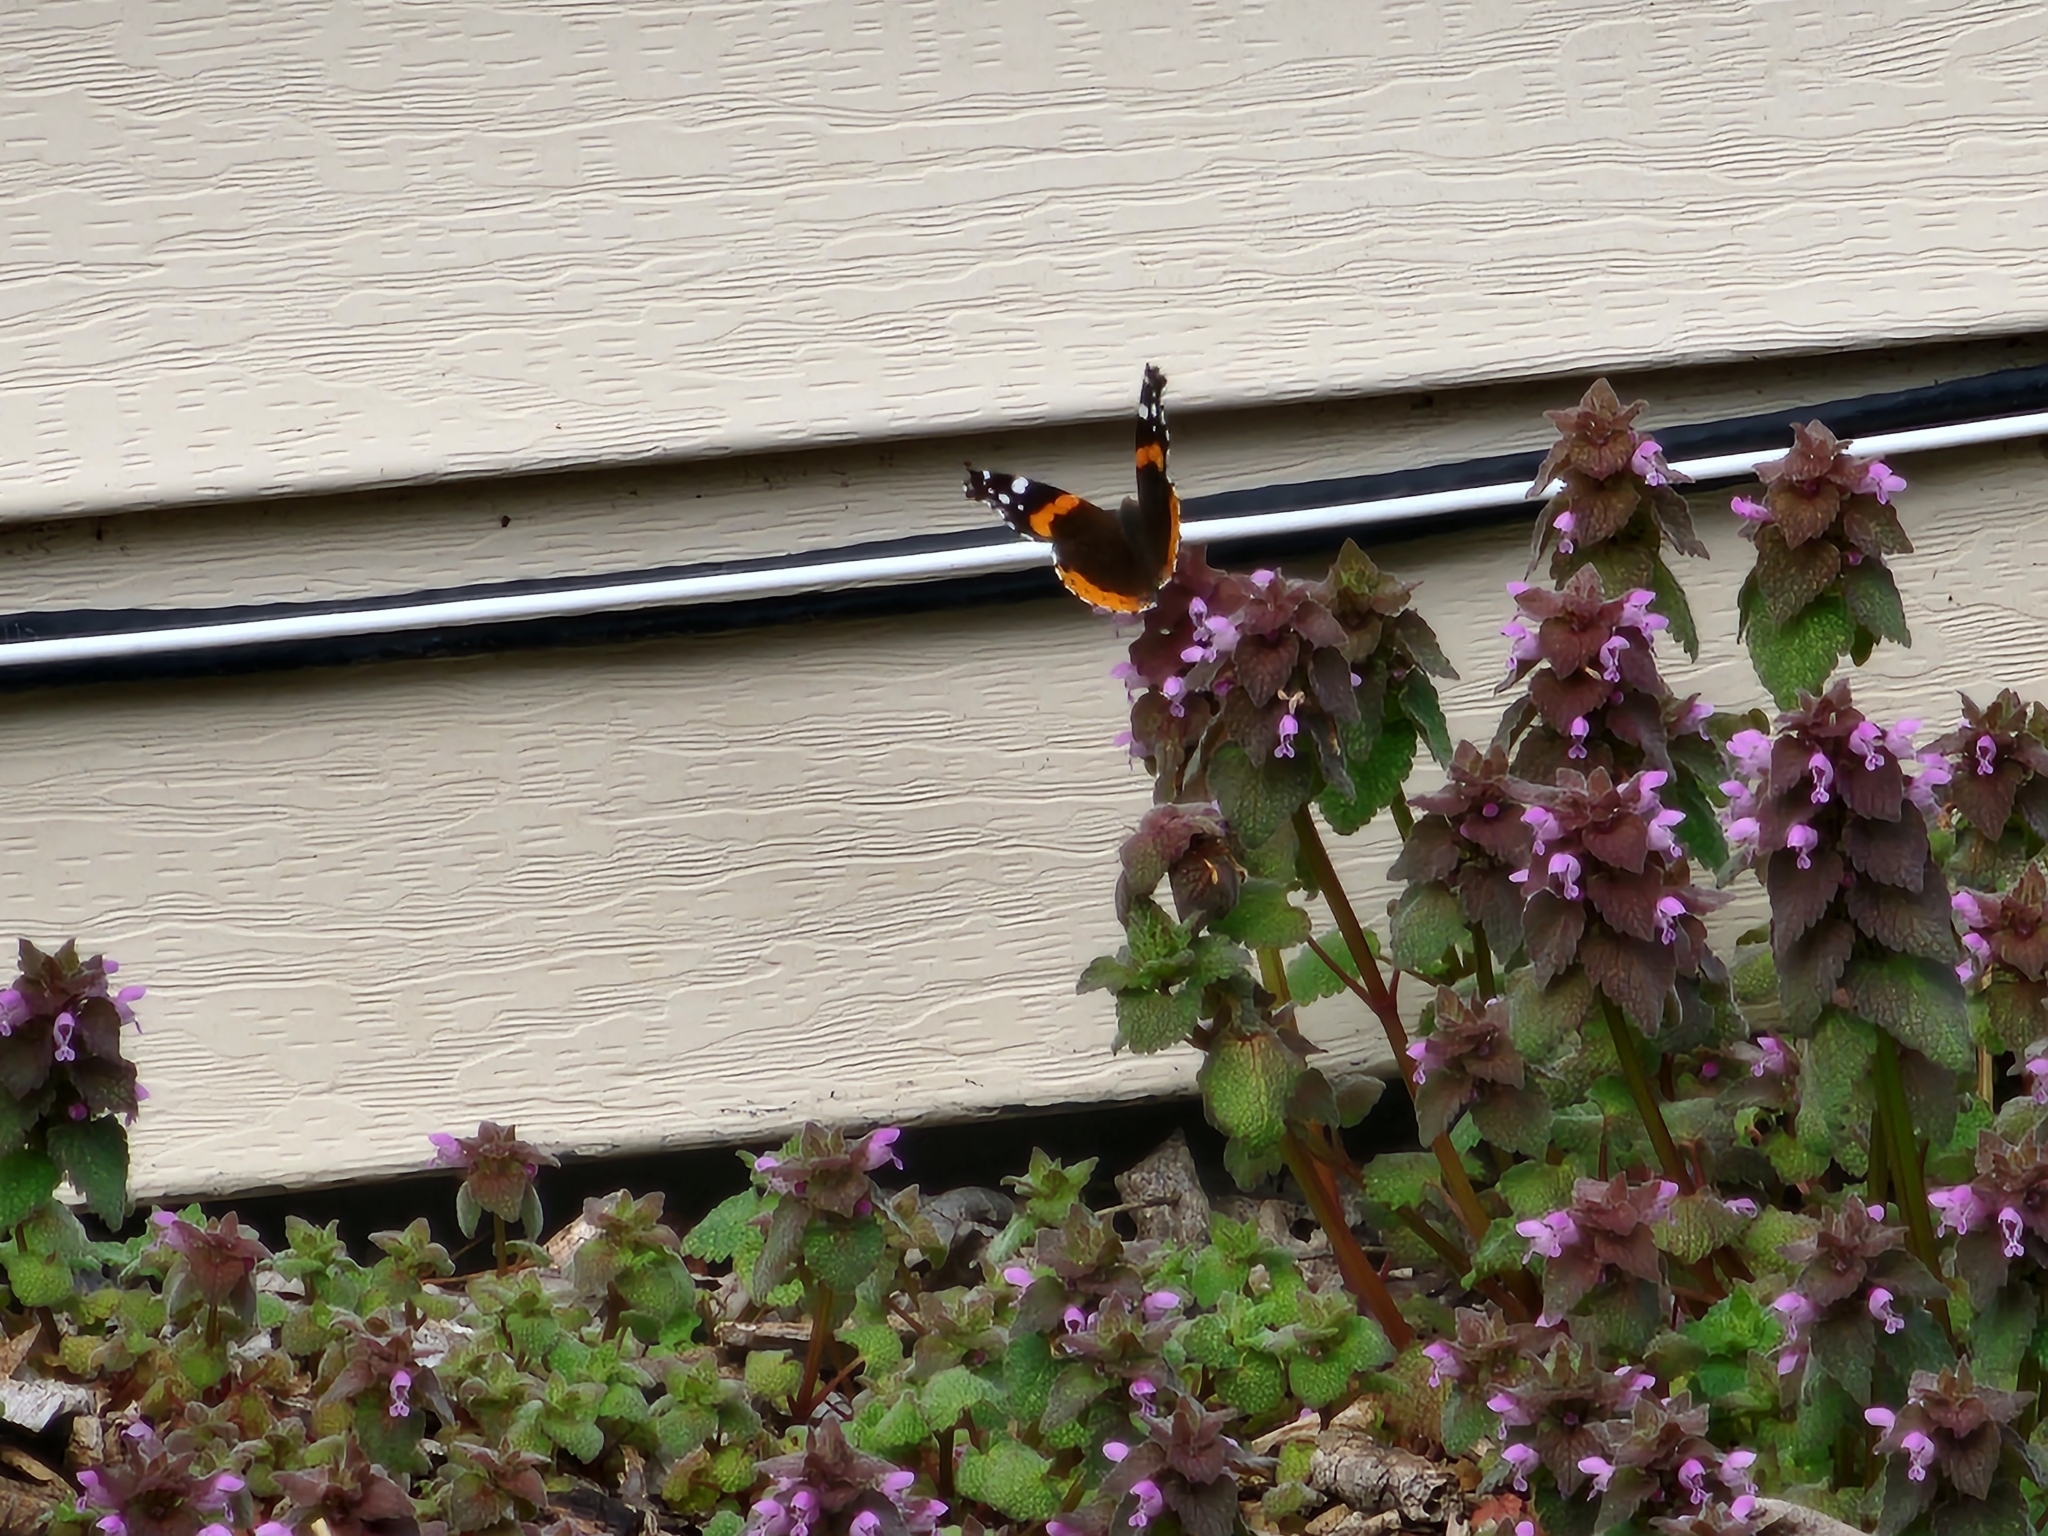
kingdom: Animalia
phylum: Arthropoda
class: Insecta
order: Lepidoptera
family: Nymphalidae
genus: Vanessa
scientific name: Vanessa atalanta
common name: Red admiral
